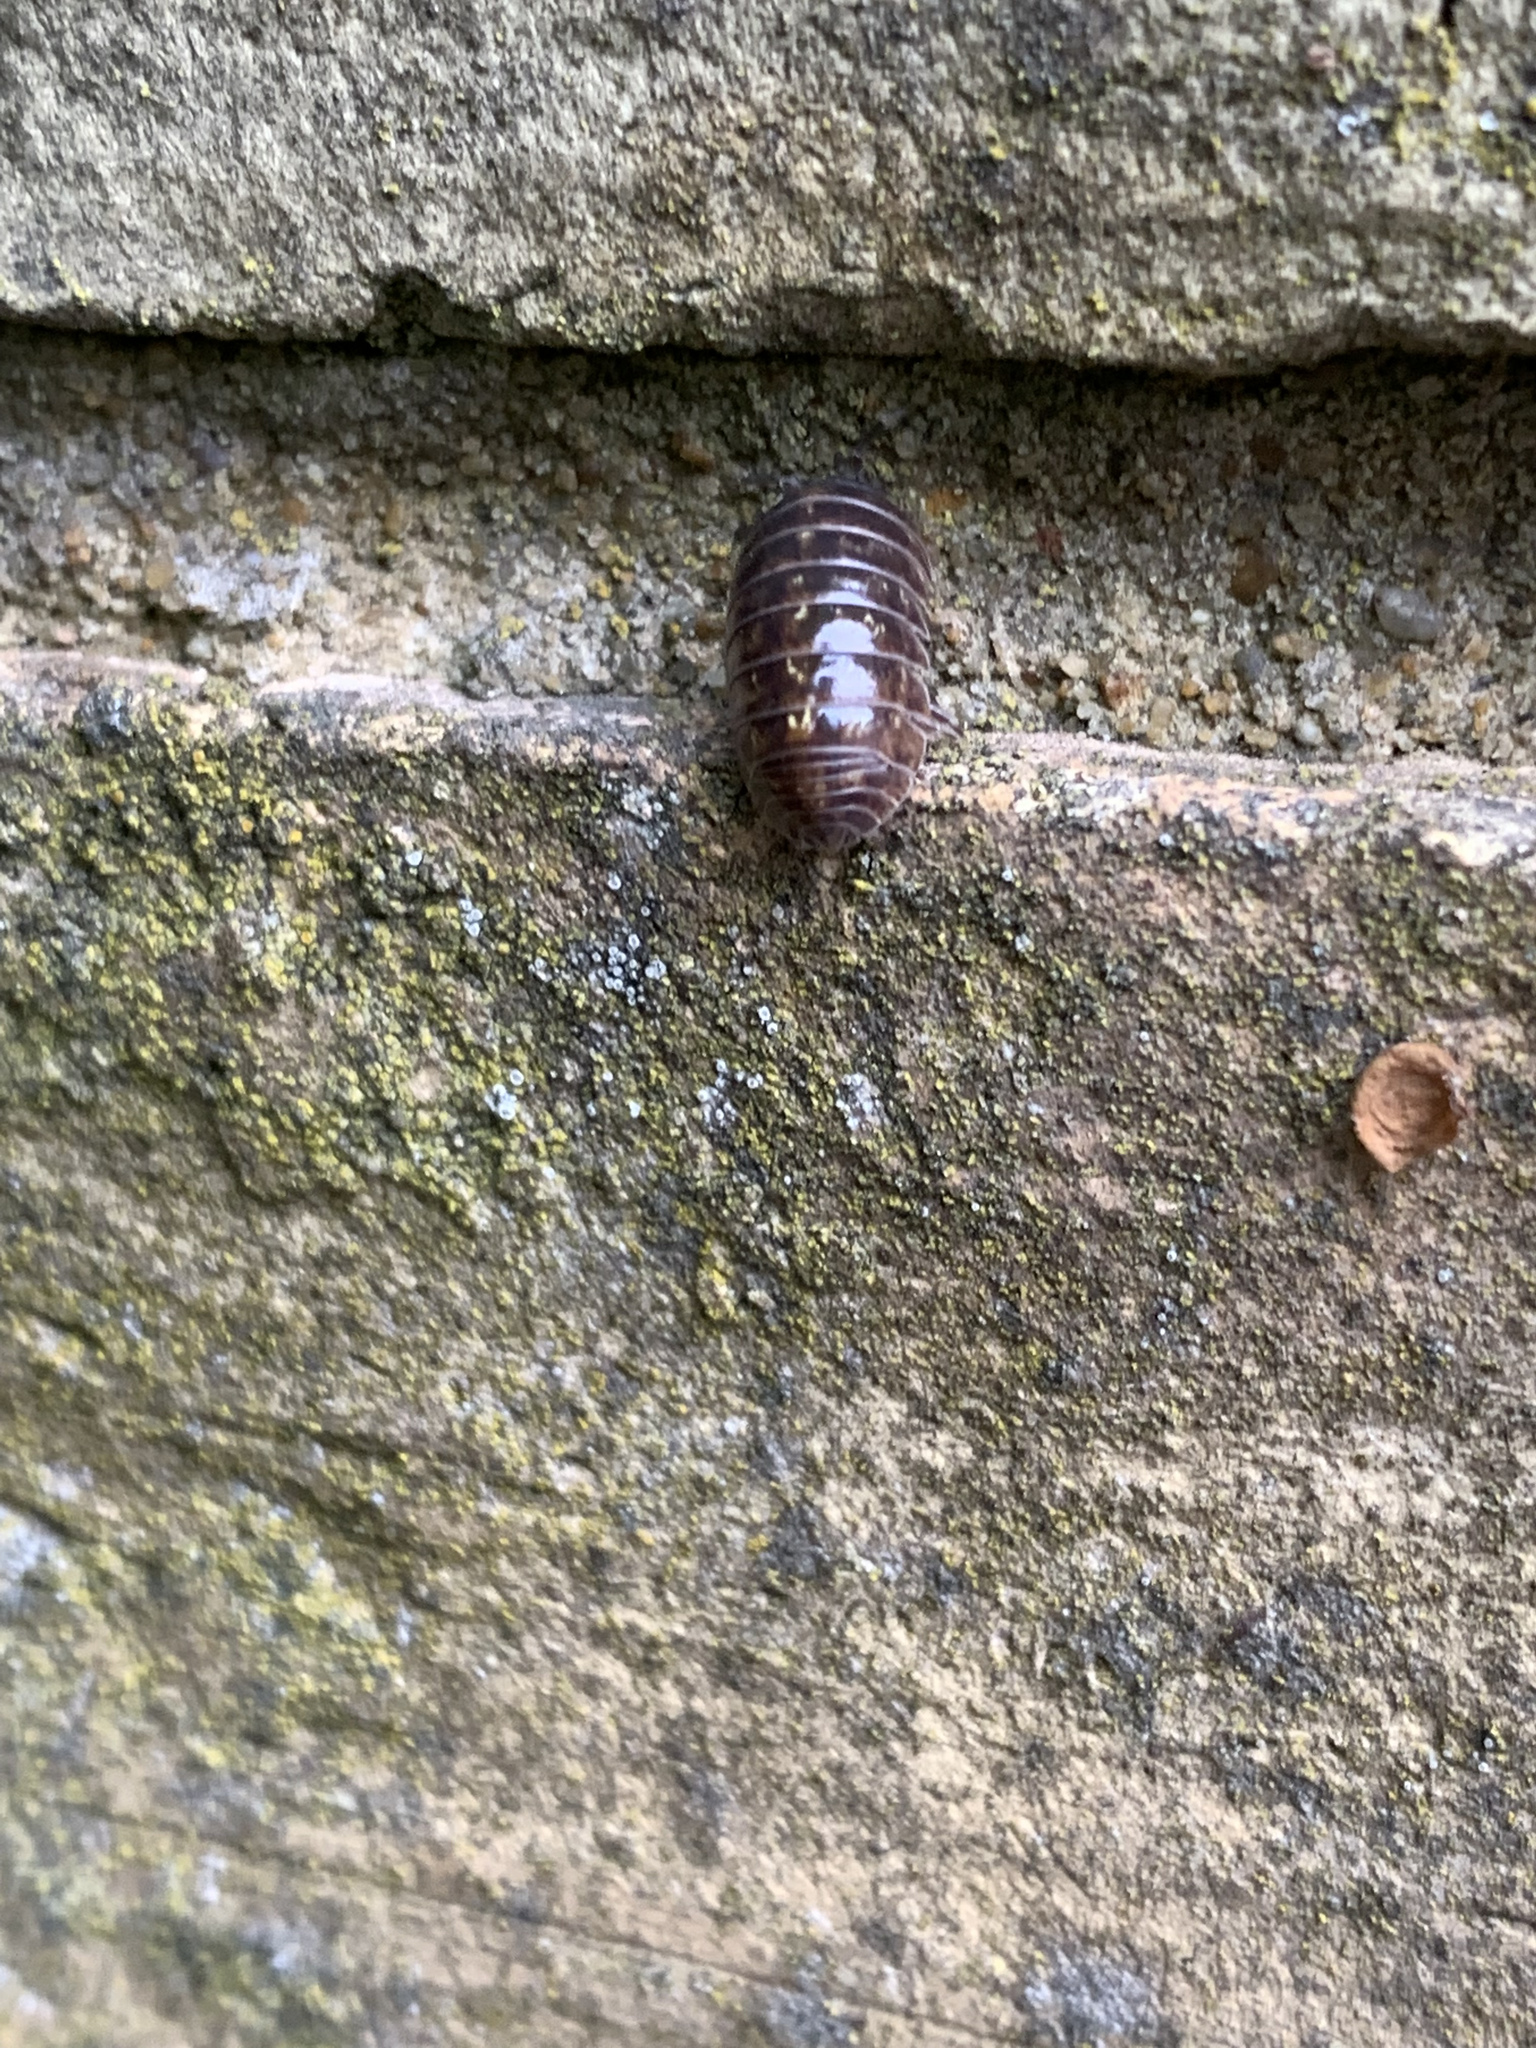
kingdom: Animalia
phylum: Arthropoda
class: Malacostraca
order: Isopoda
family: Armadillidiidae
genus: Armadillidium
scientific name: Armadillidium vulgare
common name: Common pill woodlouse
